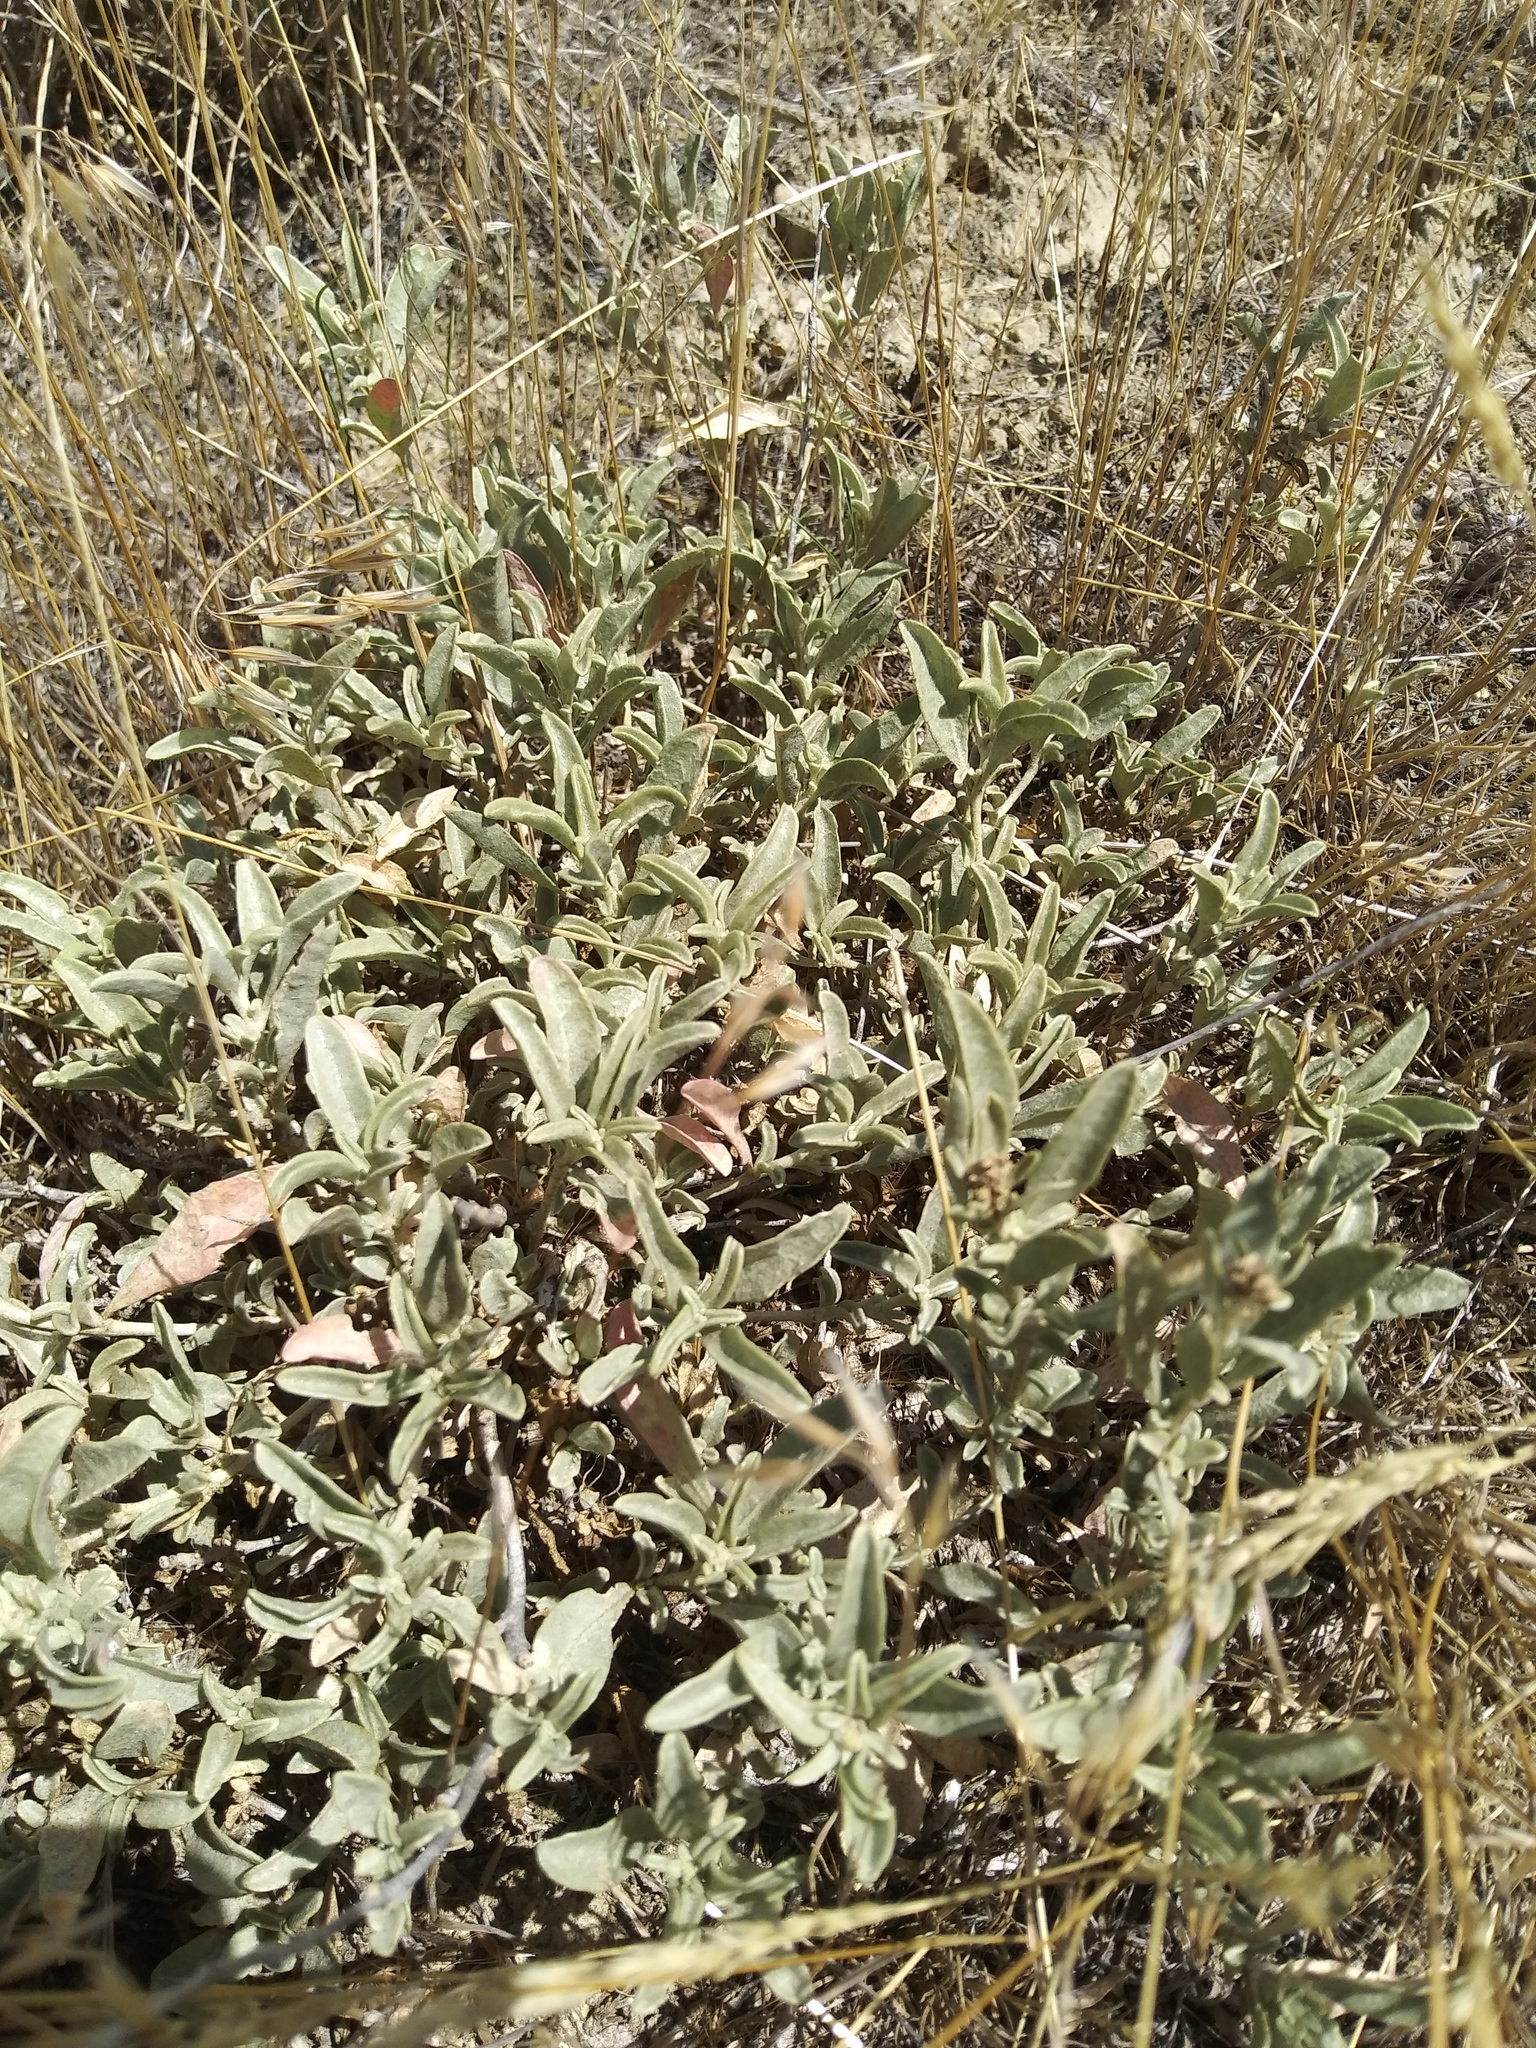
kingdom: Plantae
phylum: Tracheophyta
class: Magnoliopsida
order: Caryophyllales
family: Amaranthaceae
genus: Atriplex
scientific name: Atriplex gardneri
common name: Gardner's orache
